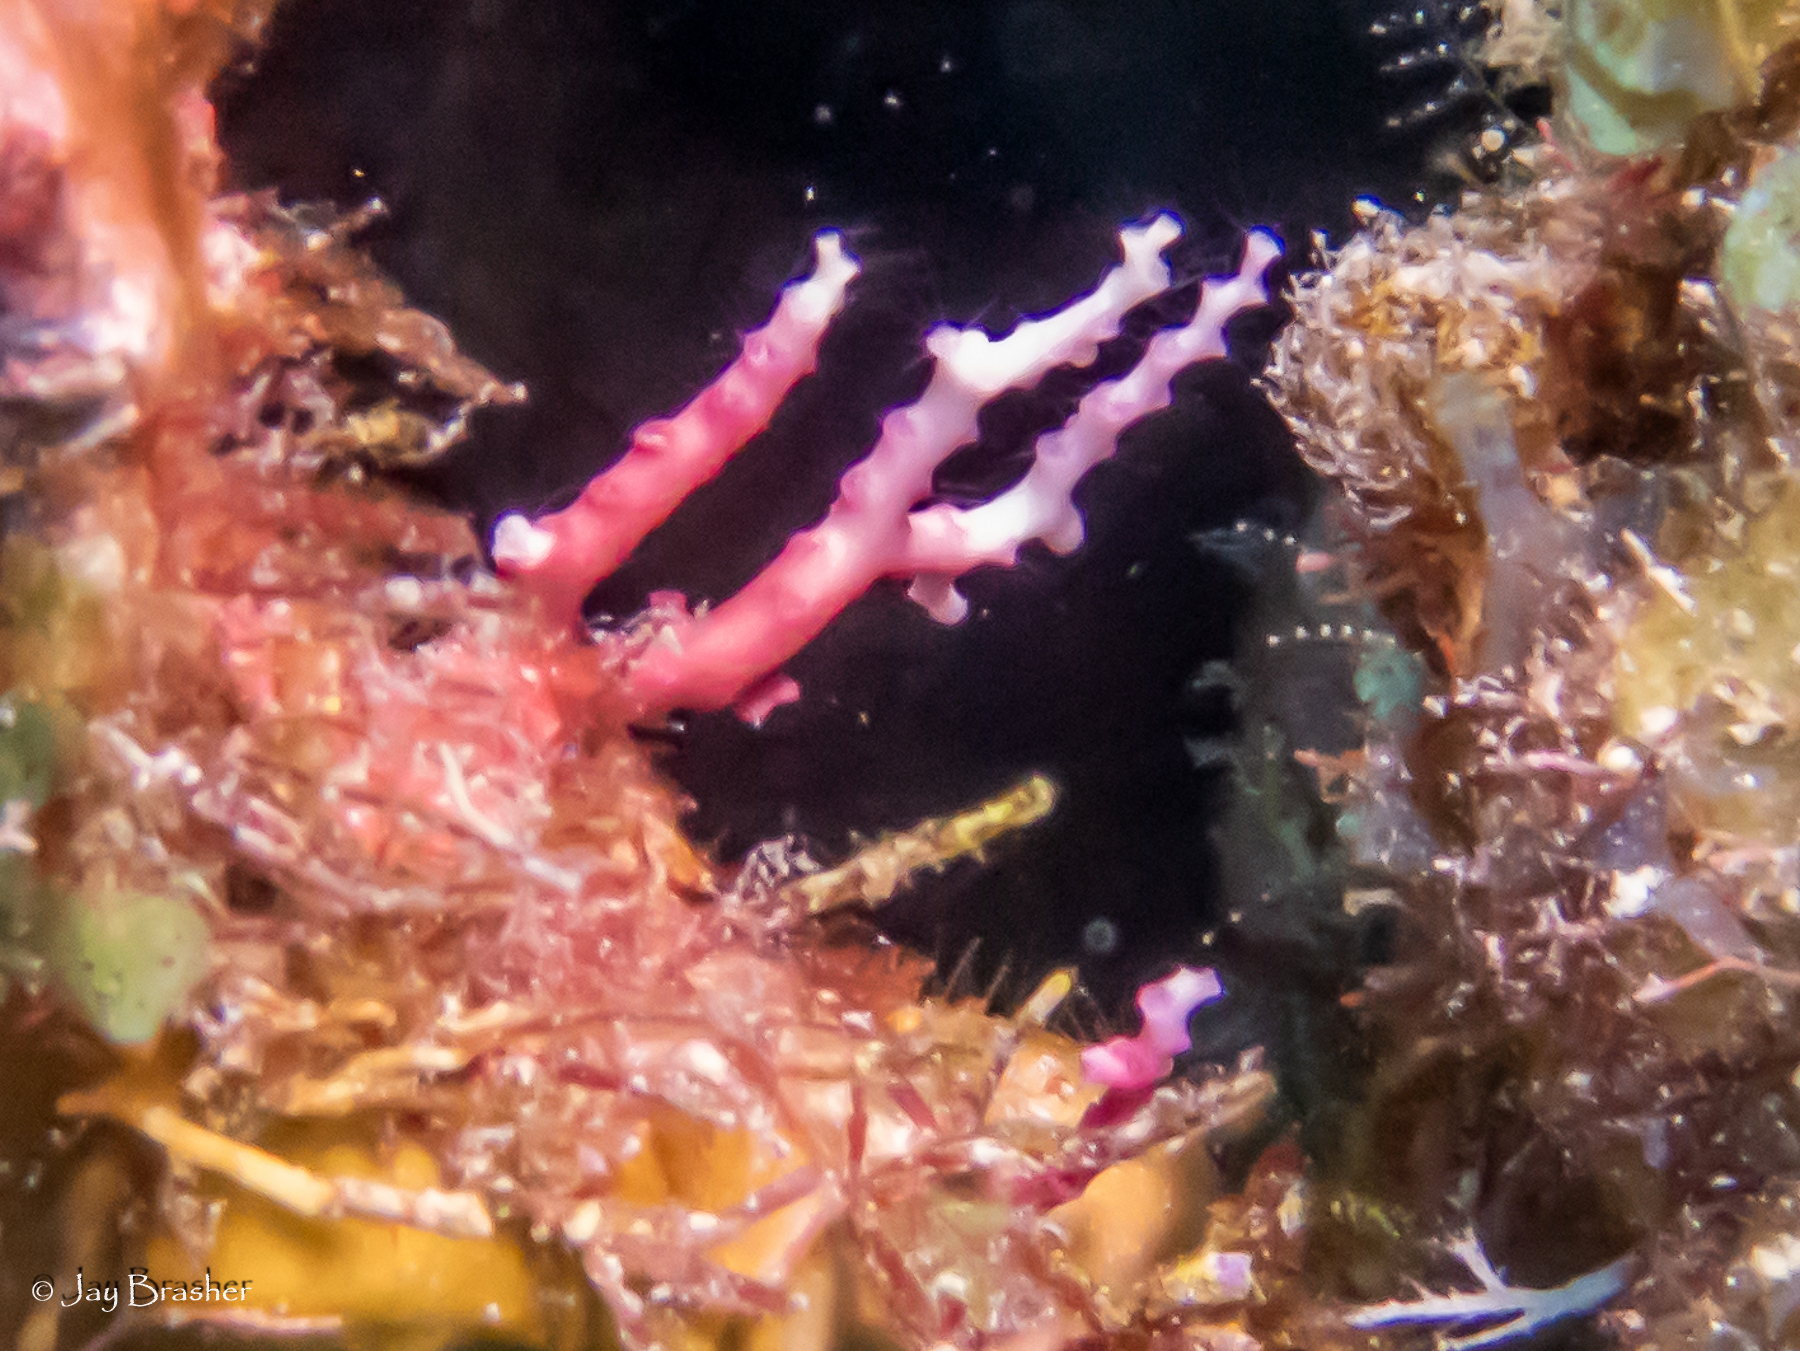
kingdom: Animalia
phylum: Cnidaria
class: Hydrozoa
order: Anthoathecata
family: Stylasteridae
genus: Stylaster
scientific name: Stylaster roseus
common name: Rose lace coral
